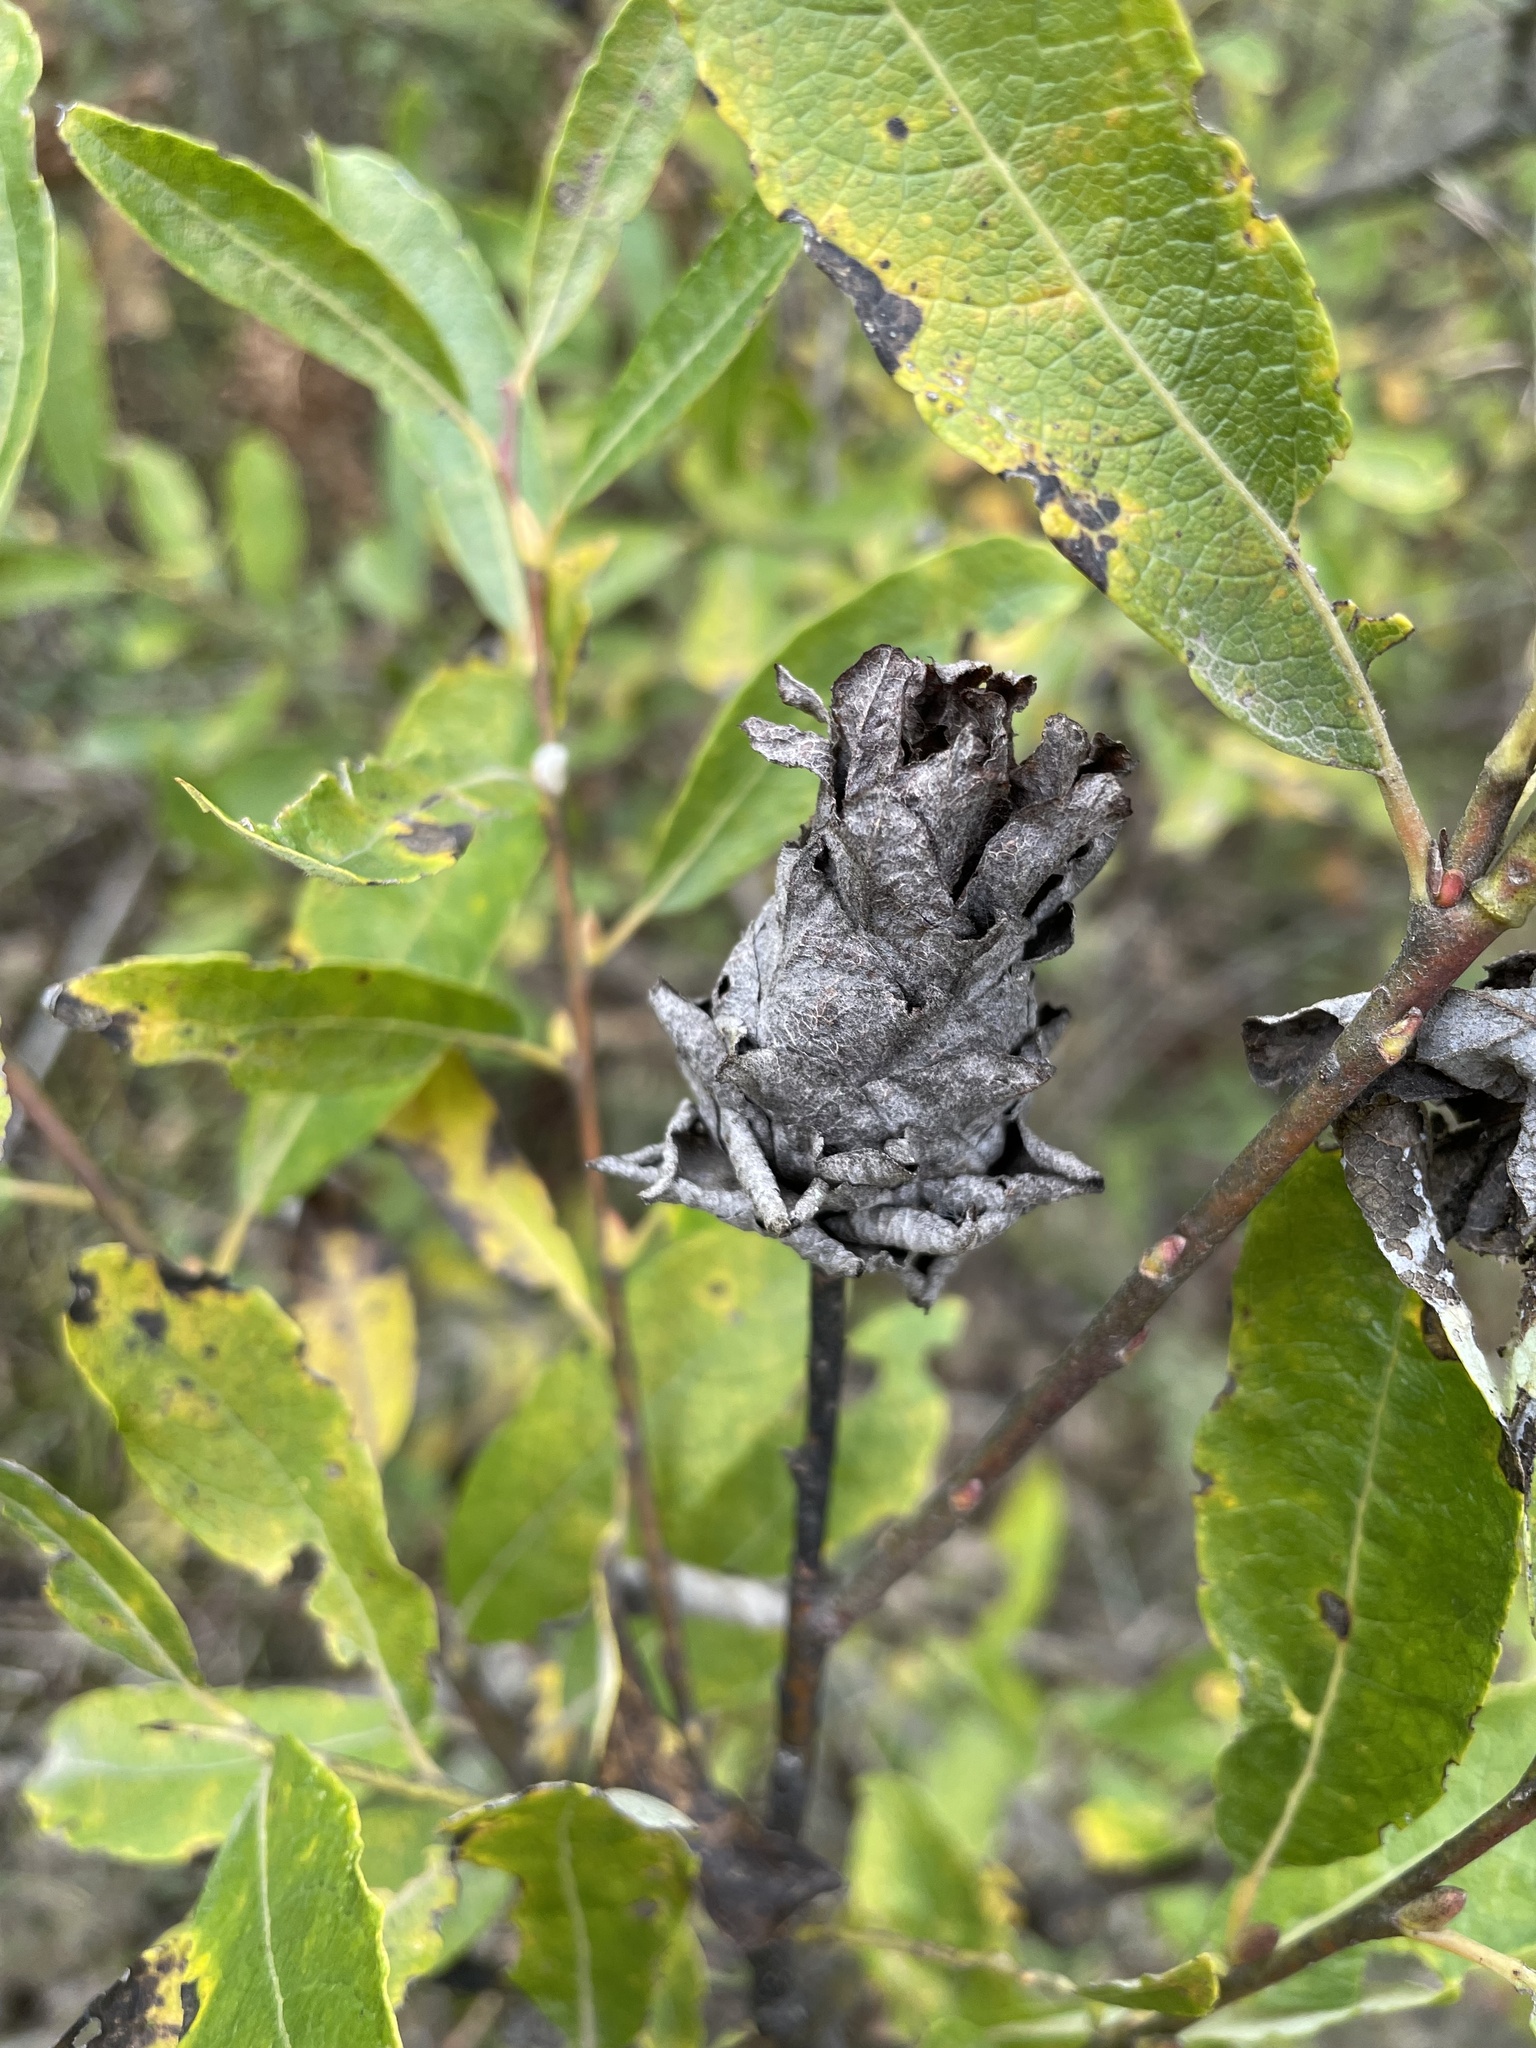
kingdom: Animalia
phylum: Arthropoda
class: Insecta
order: Diptera
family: Cecidomyiidae
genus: Rabdophaga
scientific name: Rabdophaga strobiloides
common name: Willow pinecone gall midge
